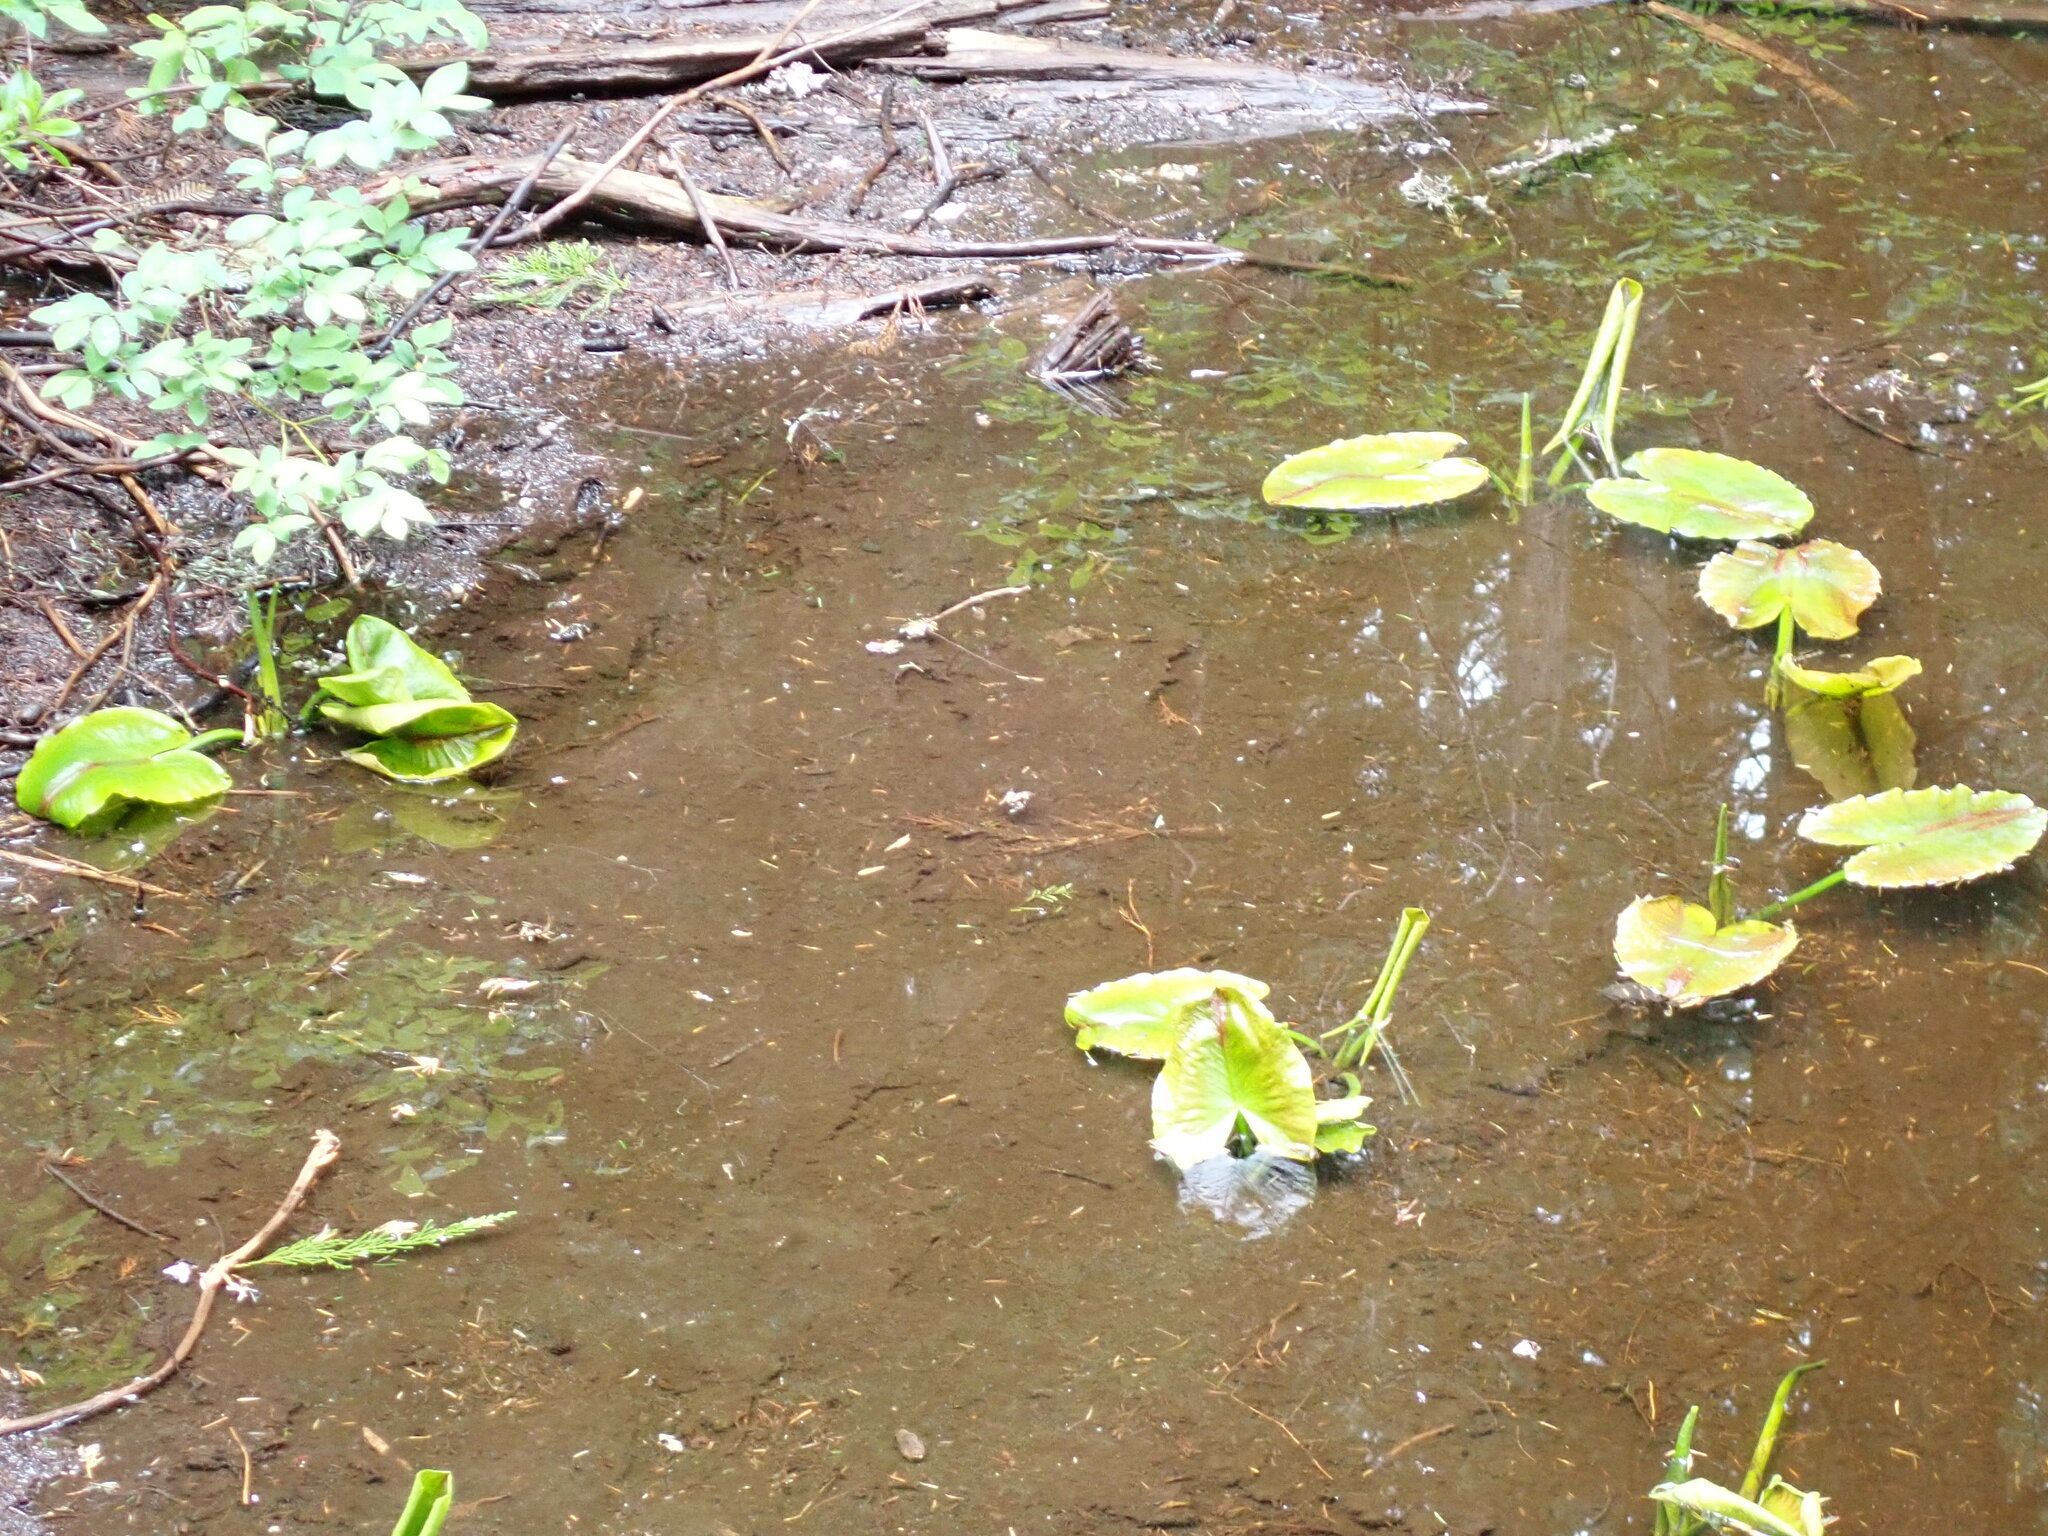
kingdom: Plantae
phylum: Tracheophyta
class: Magnoliopsida
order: Nymphaeales
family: Nymphaeaceae
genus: Nuphar
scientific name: Nuphar polysepala
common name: Rocky mountain cow-lily
